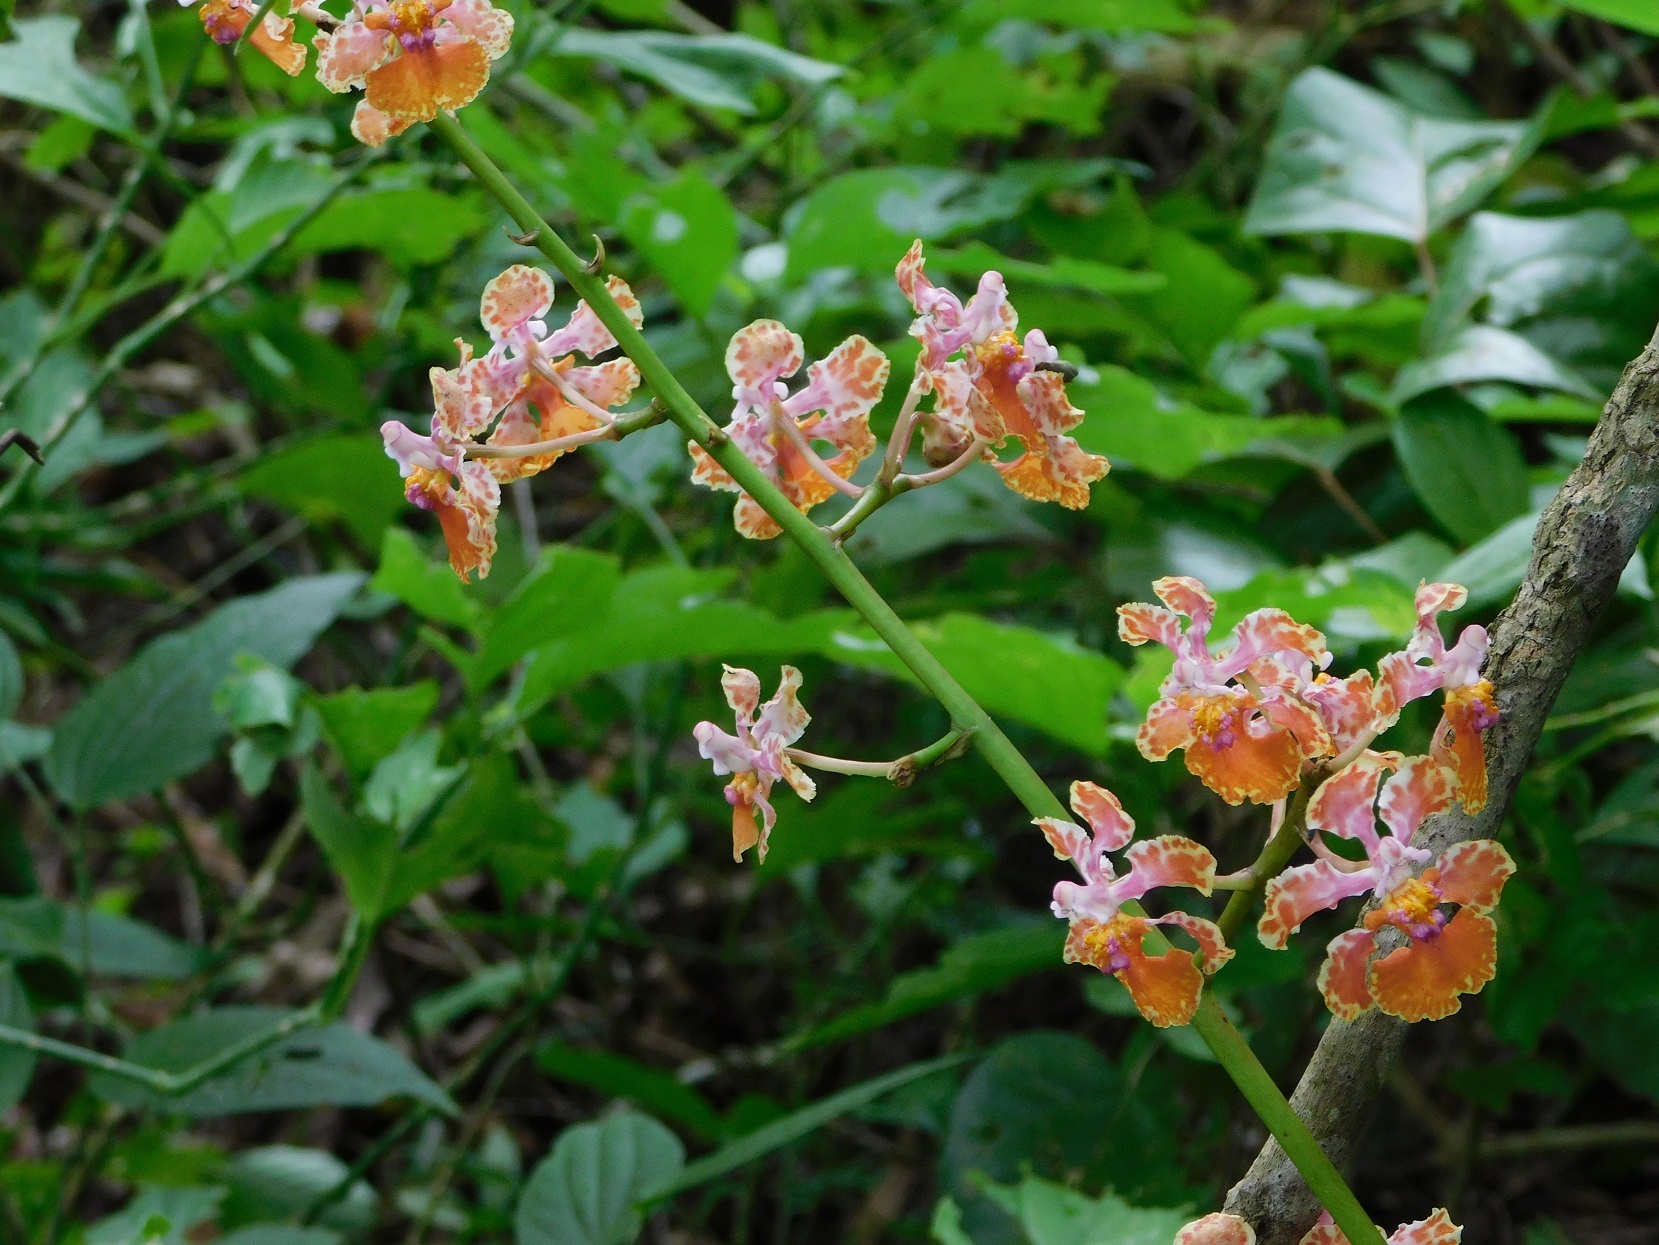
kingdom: Plantae
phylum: Tracheophyta
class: Liliopsida
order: Asparagales
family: Orchidaceae
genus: Trichocentrum
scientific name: Trichocentrum andreanum
